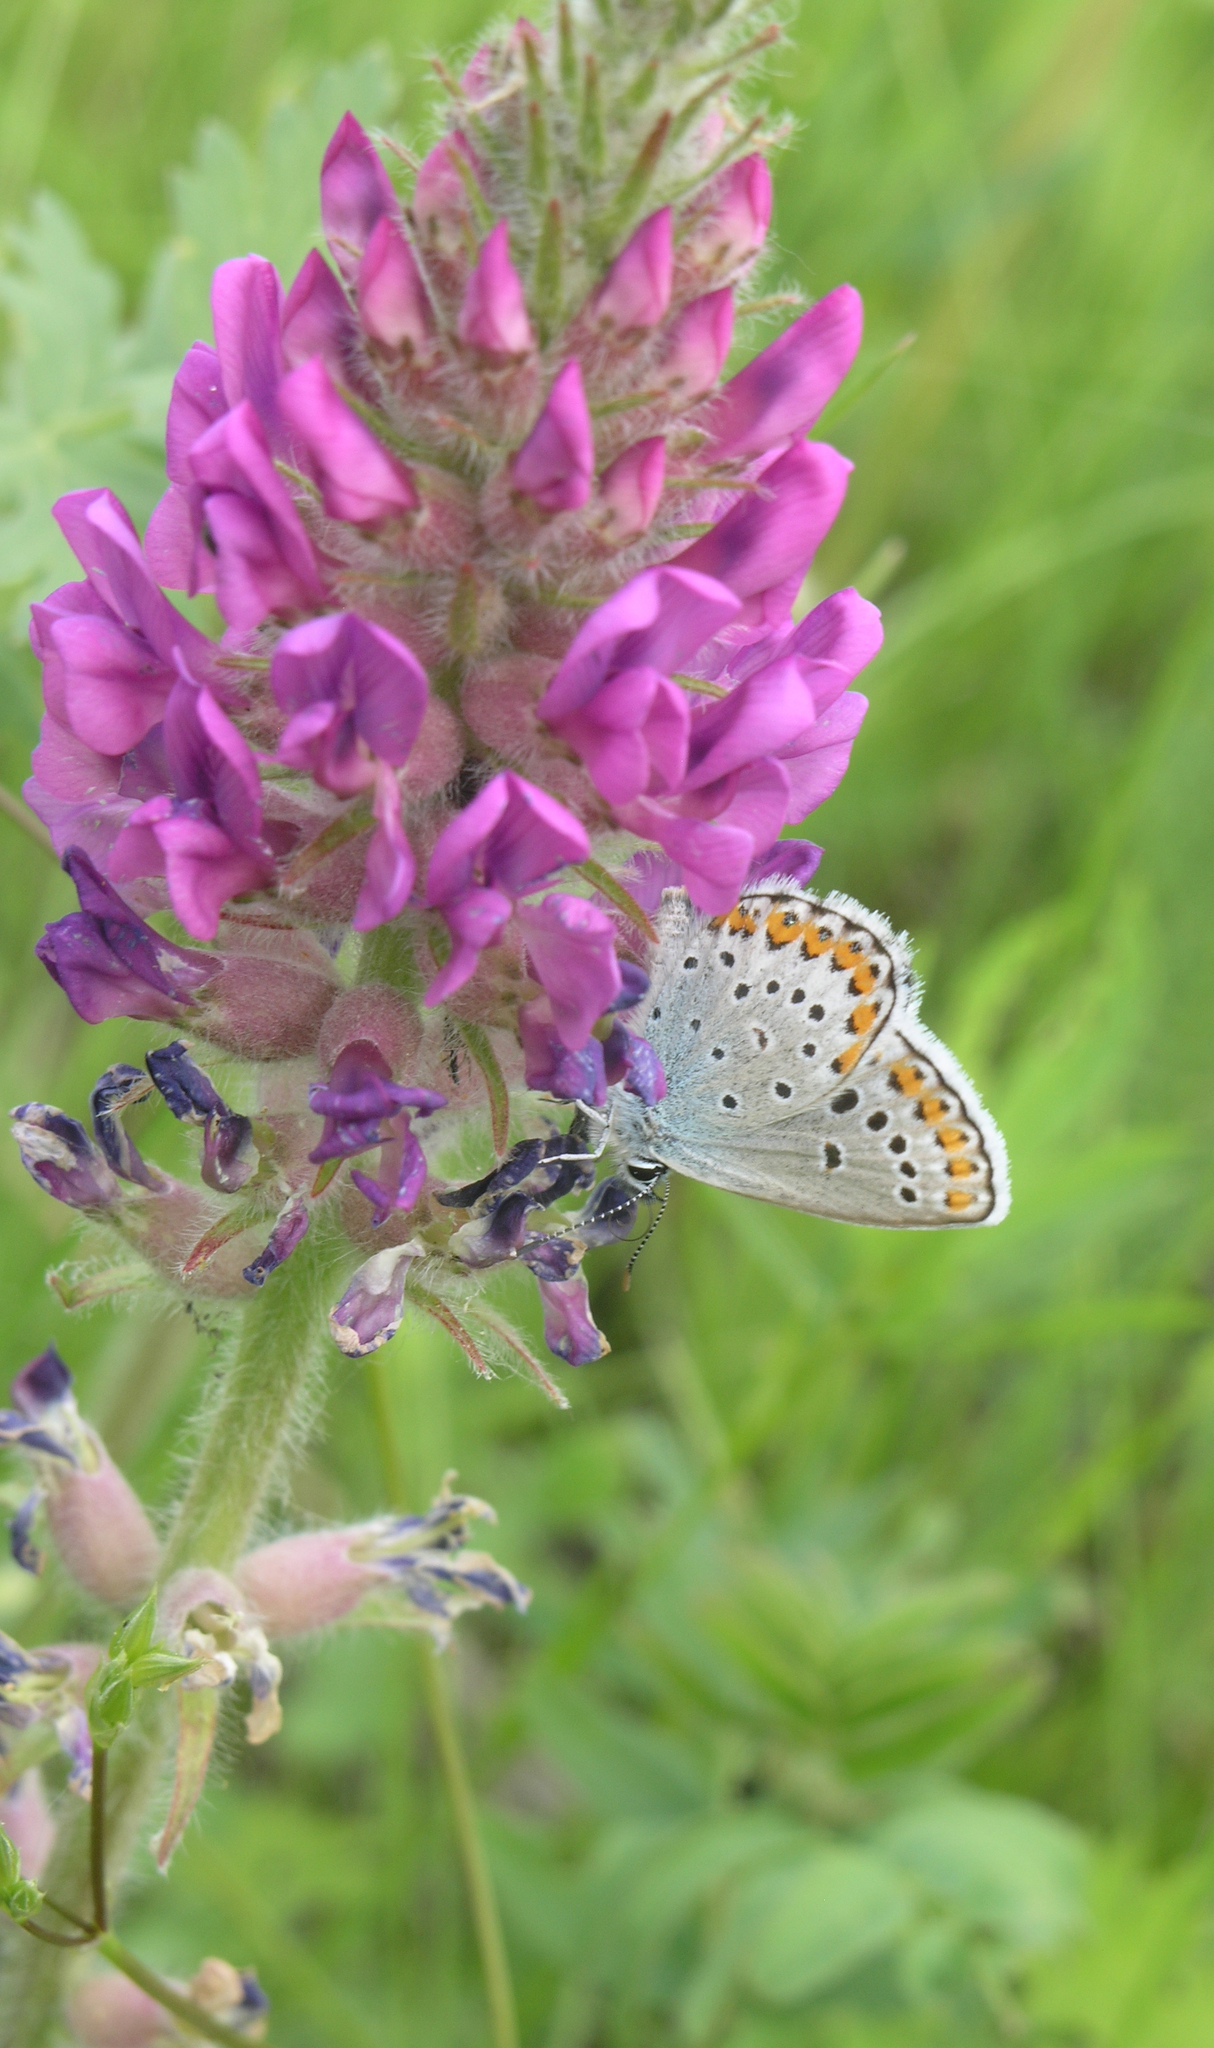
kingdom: Plantae
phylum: Tracheophyta
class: Magnoliopsida
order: Fabales
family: Fabaceae
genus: Oxytropis
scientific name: Oxytropis campanulata
